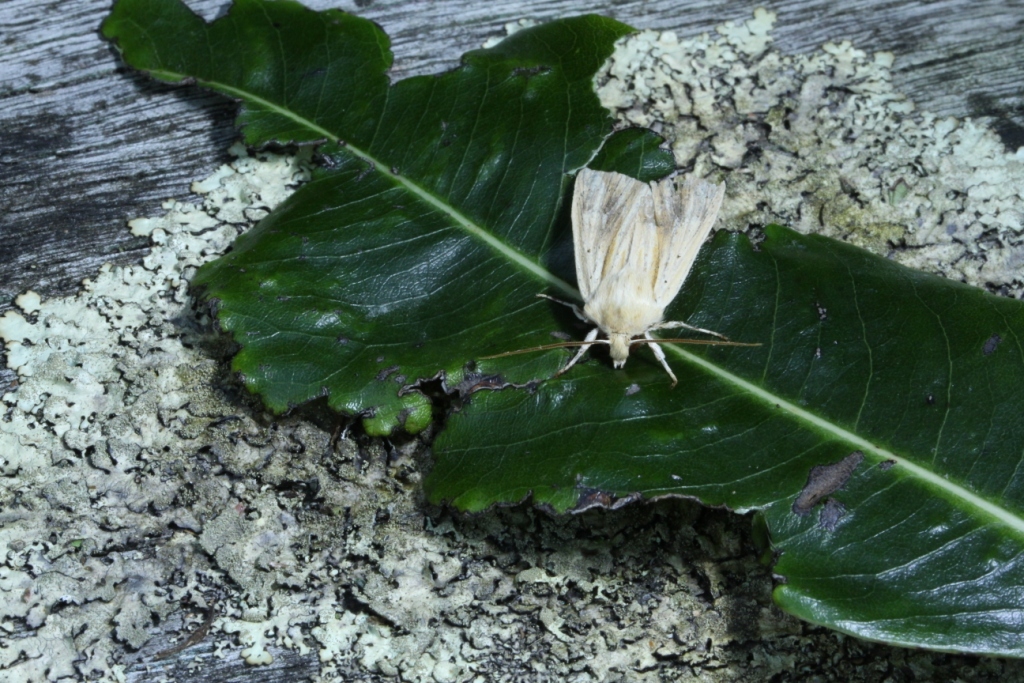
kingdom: Animalia
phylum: Arthropoda
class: Insecta
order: Lepidoptera
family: Noctuidae
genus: Ichneutica
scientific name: Ichneutica semivittata
